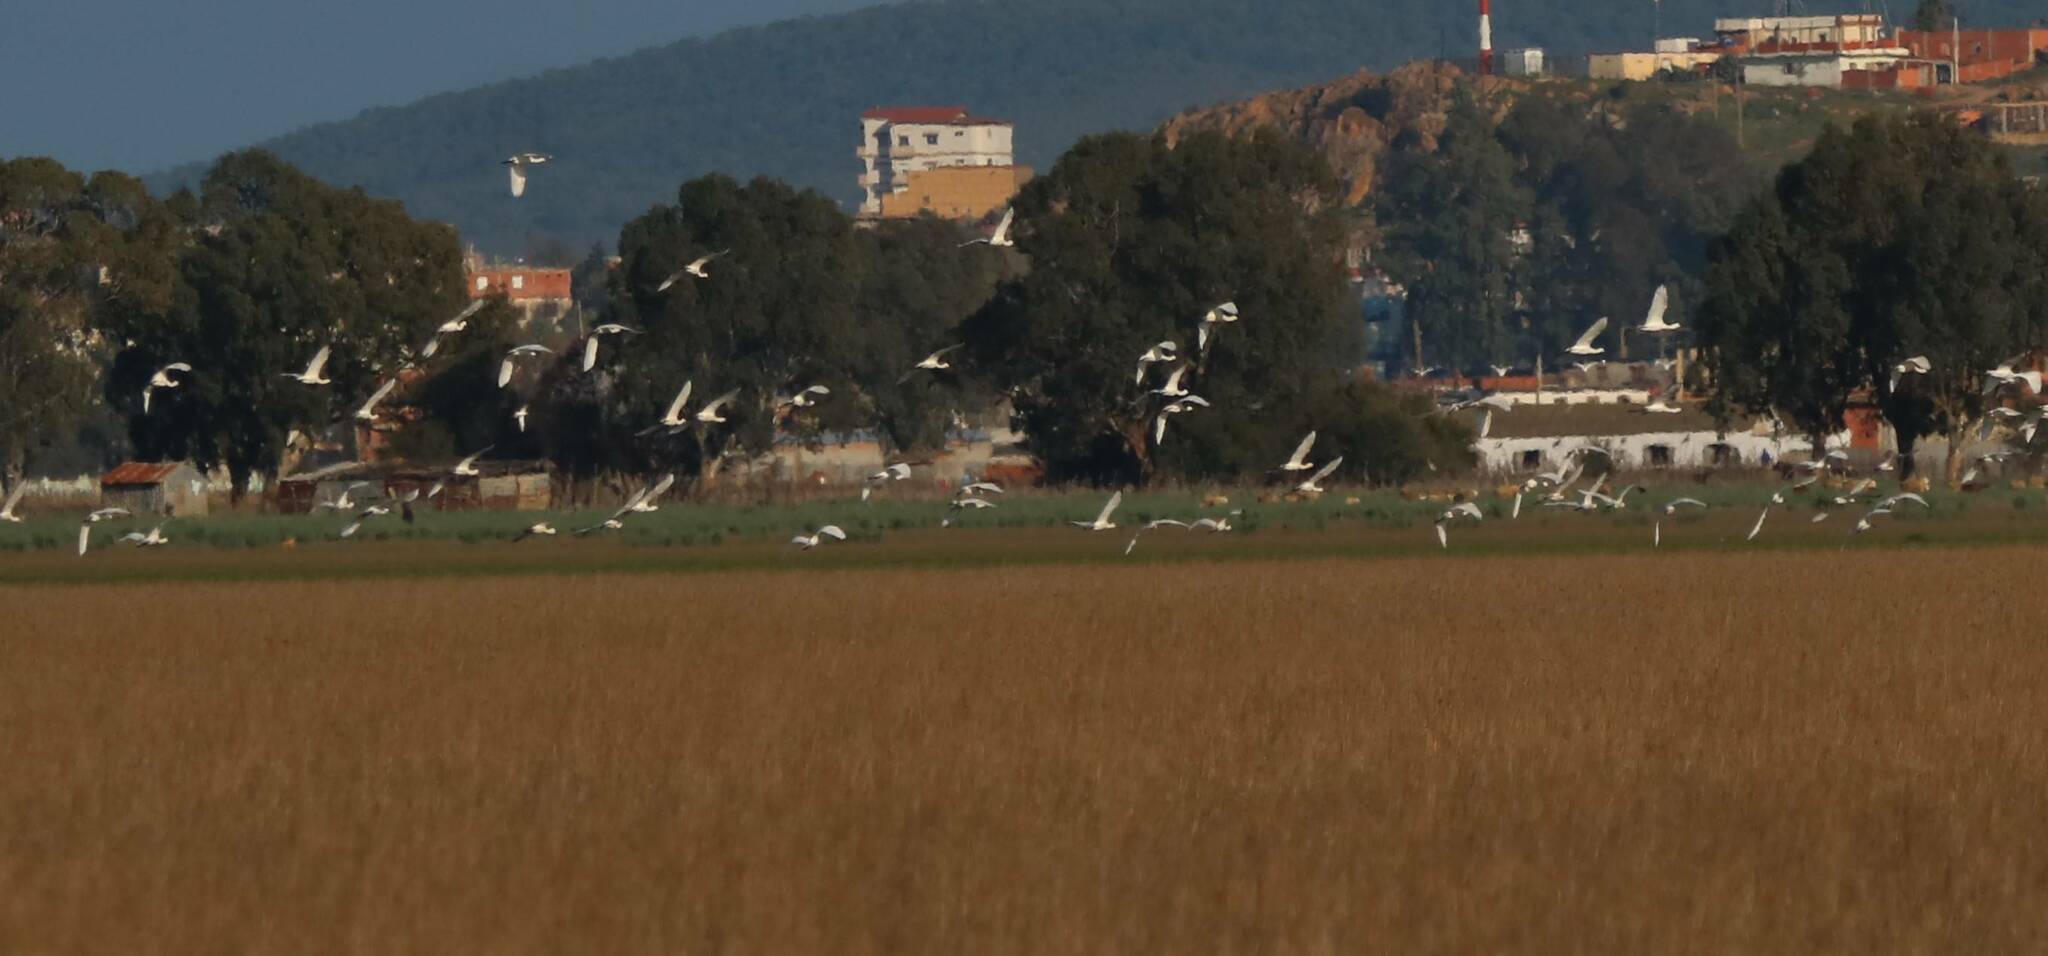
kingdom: Animalia
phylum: Chordata
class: Aves
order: Pelecaniformes
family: Threskiornithidae
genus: Platalea
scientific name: Platalea leucorodia
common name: Eurasian spoonbill
